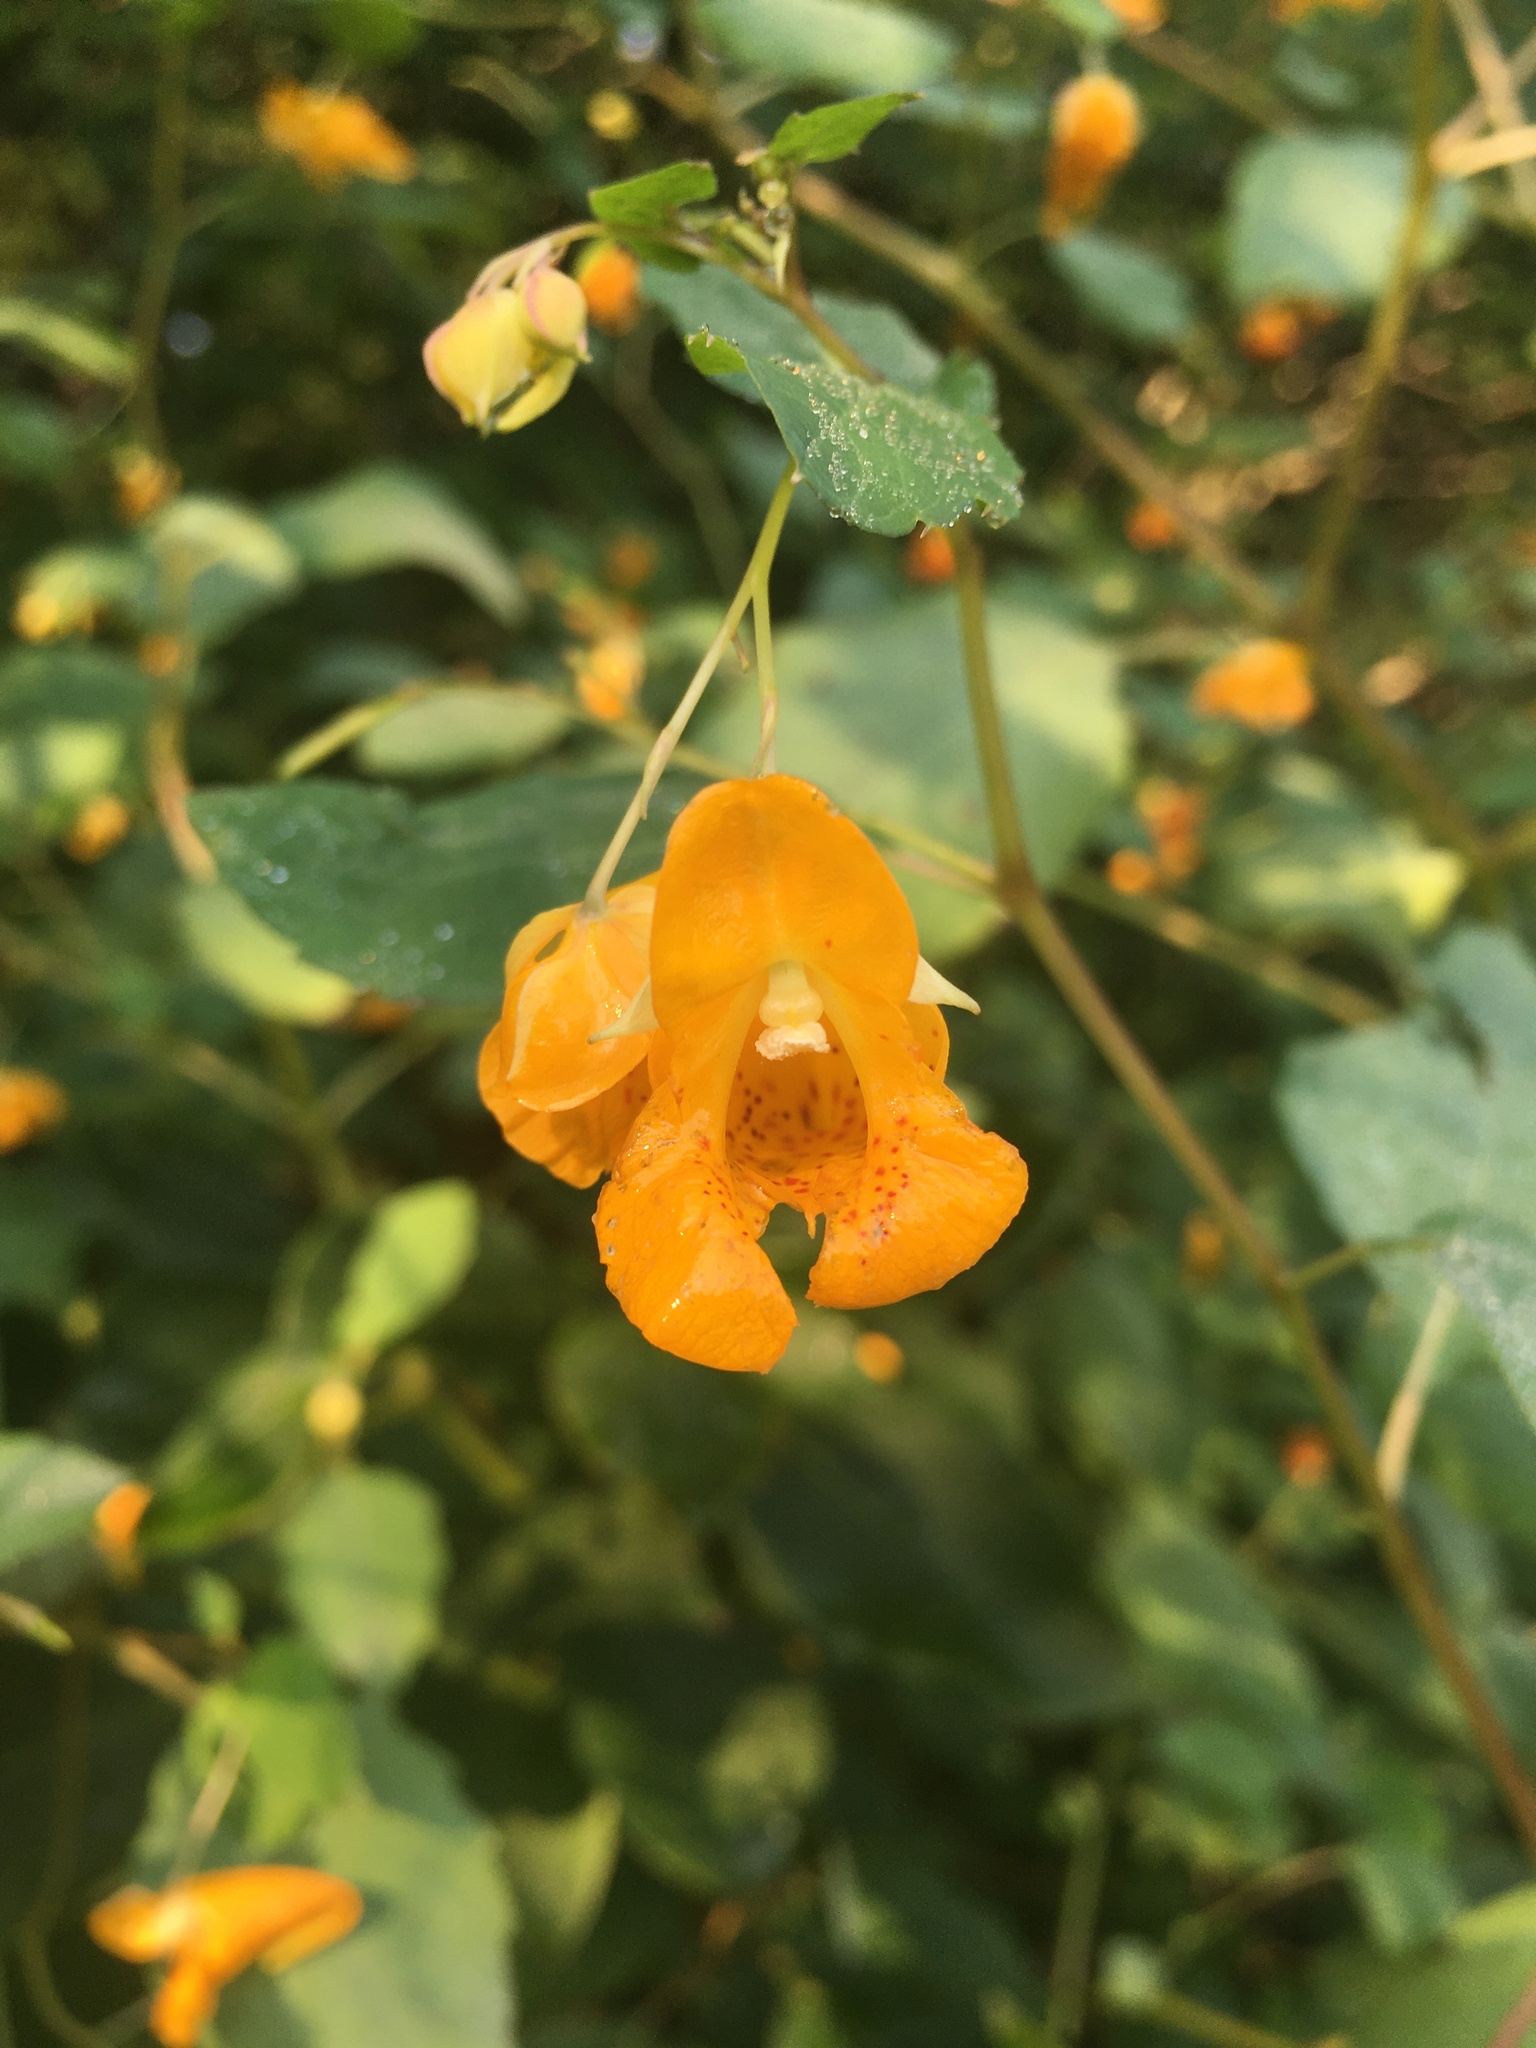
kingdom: Plantae
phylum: Tracheophyta
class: Magnoliopsida
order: Ericales
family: Balsaminaceae
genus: Impatiens
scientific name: Impatiens capensis
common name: Orange balsam
